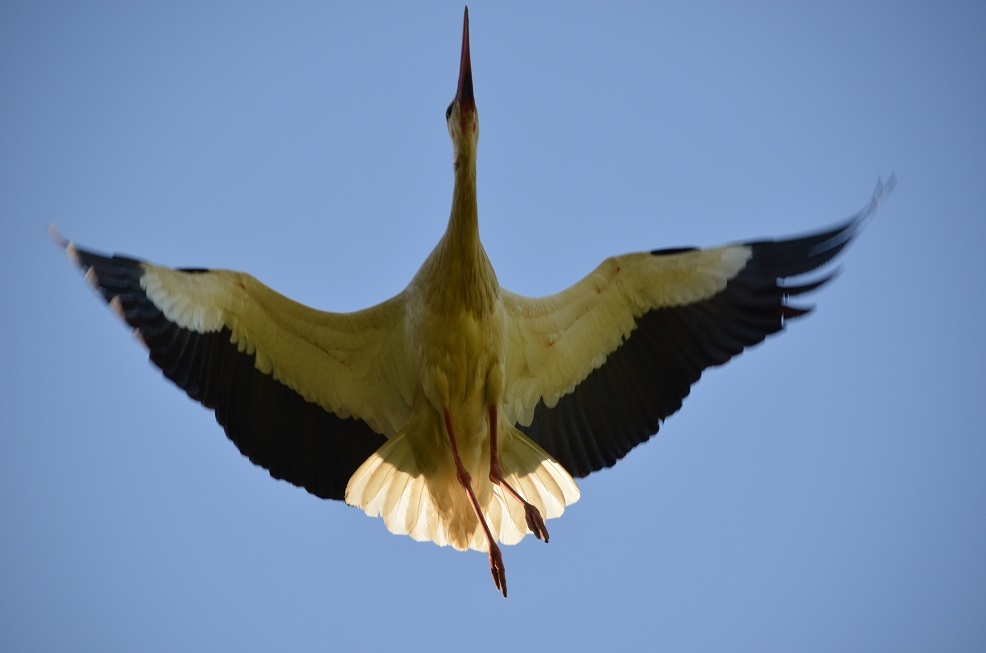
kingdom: Animalia
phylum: Chordata
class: Aves
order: Ciconiiformes
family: Ciconiidae
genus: Ciconia
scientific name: Ciconia ciconia
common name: White stork
